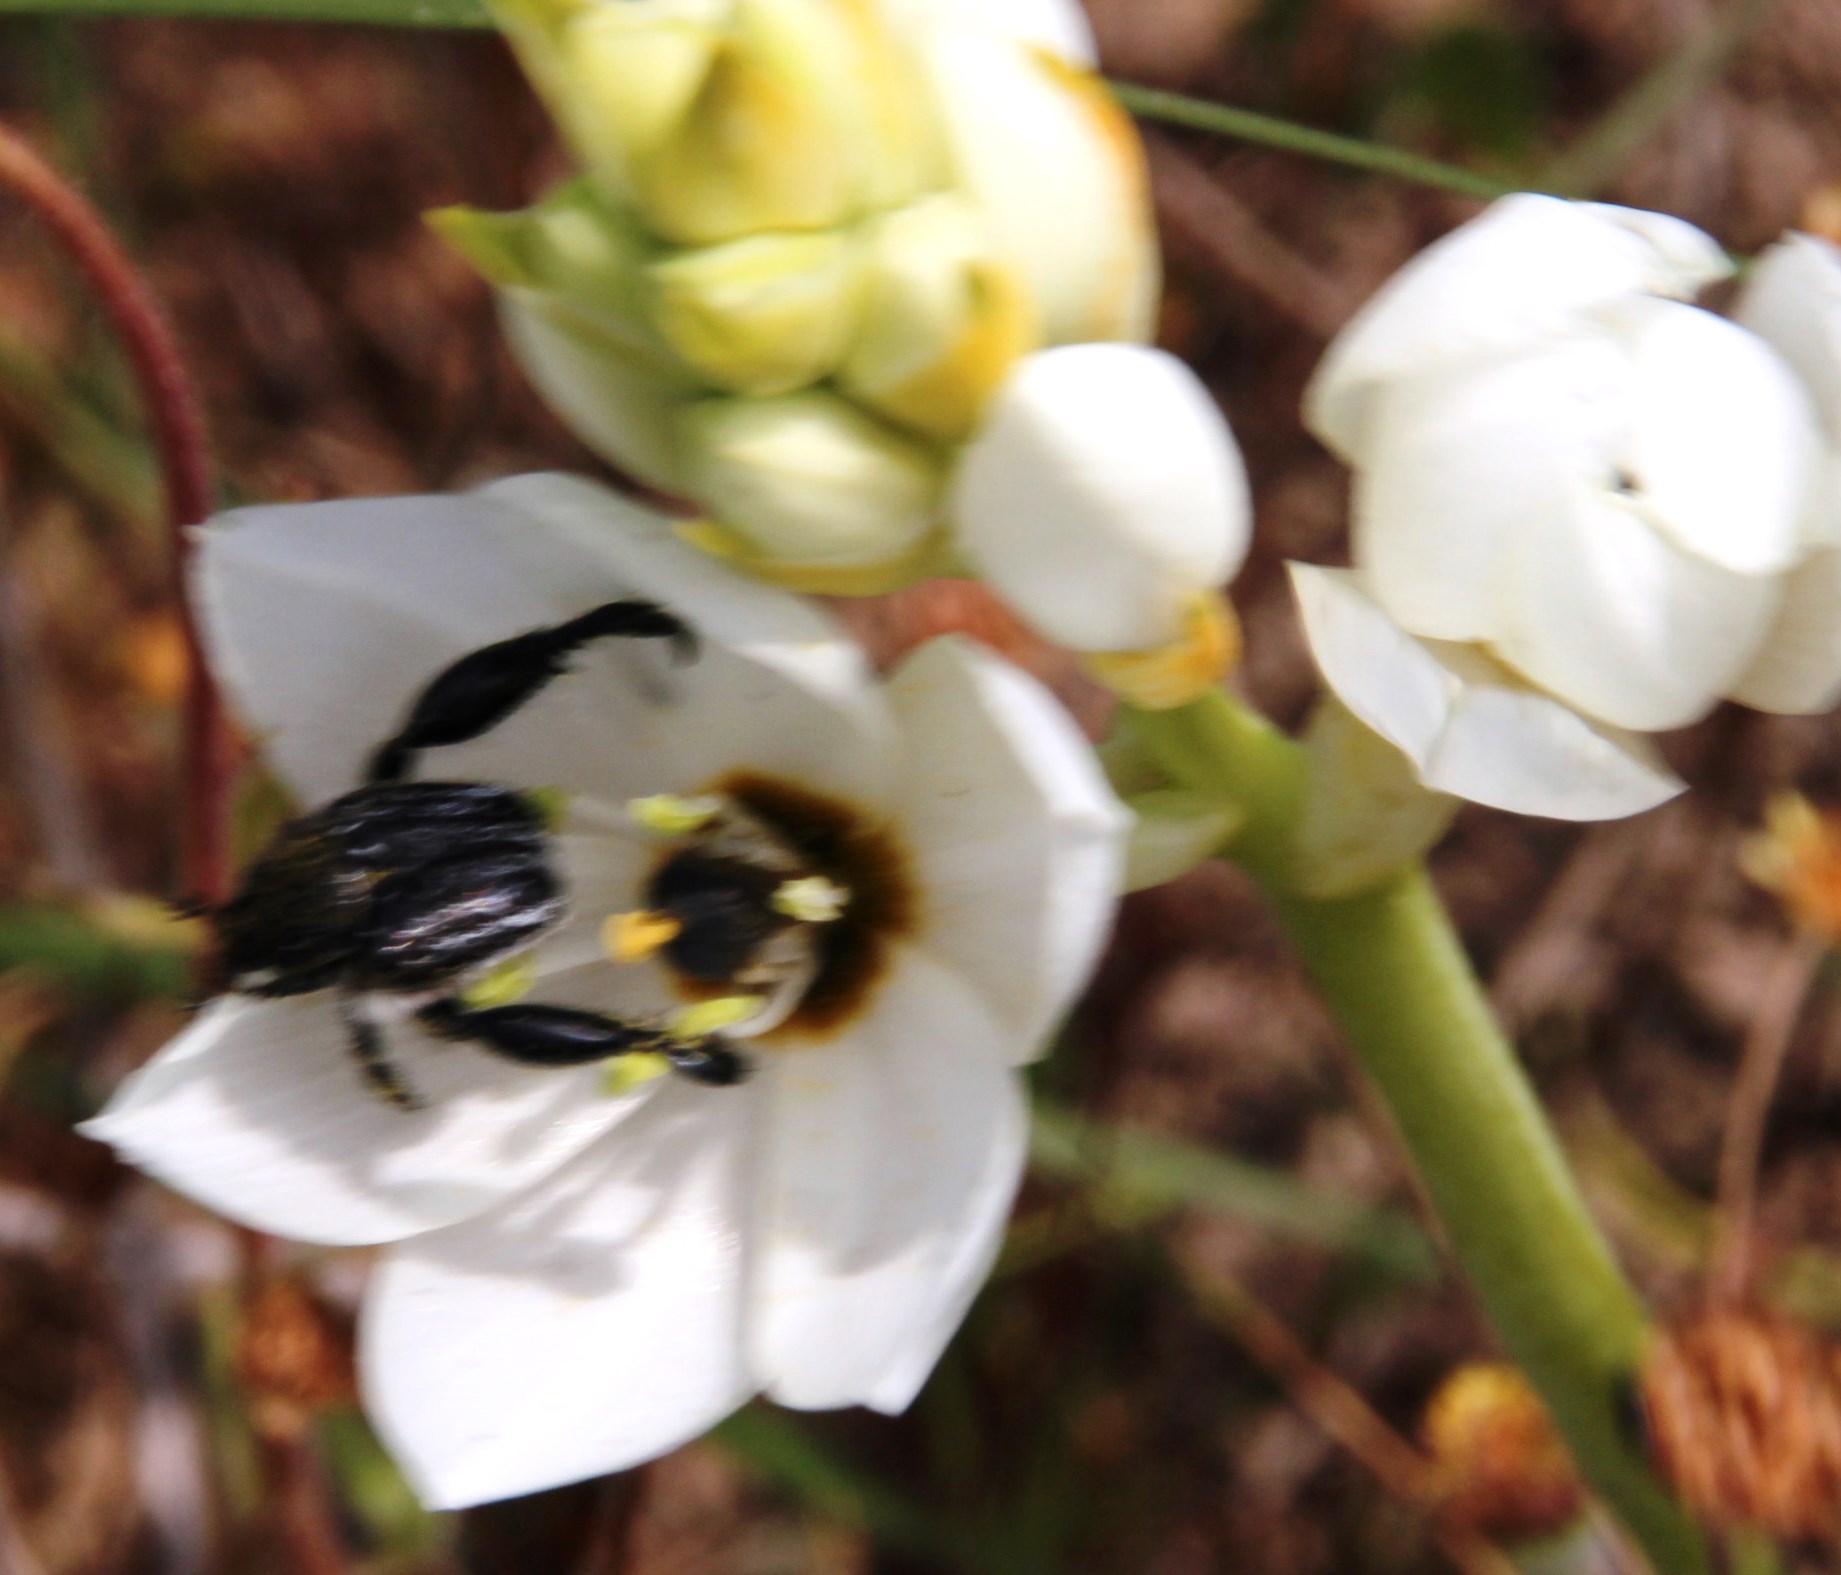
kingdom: Plantae
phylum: Tracheophyta
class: Liliopsida
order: Asparagales
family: Asparagaceae
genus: Ornithogalum
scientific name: Ornithogalum thyrsoides
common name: Chincherinchee
